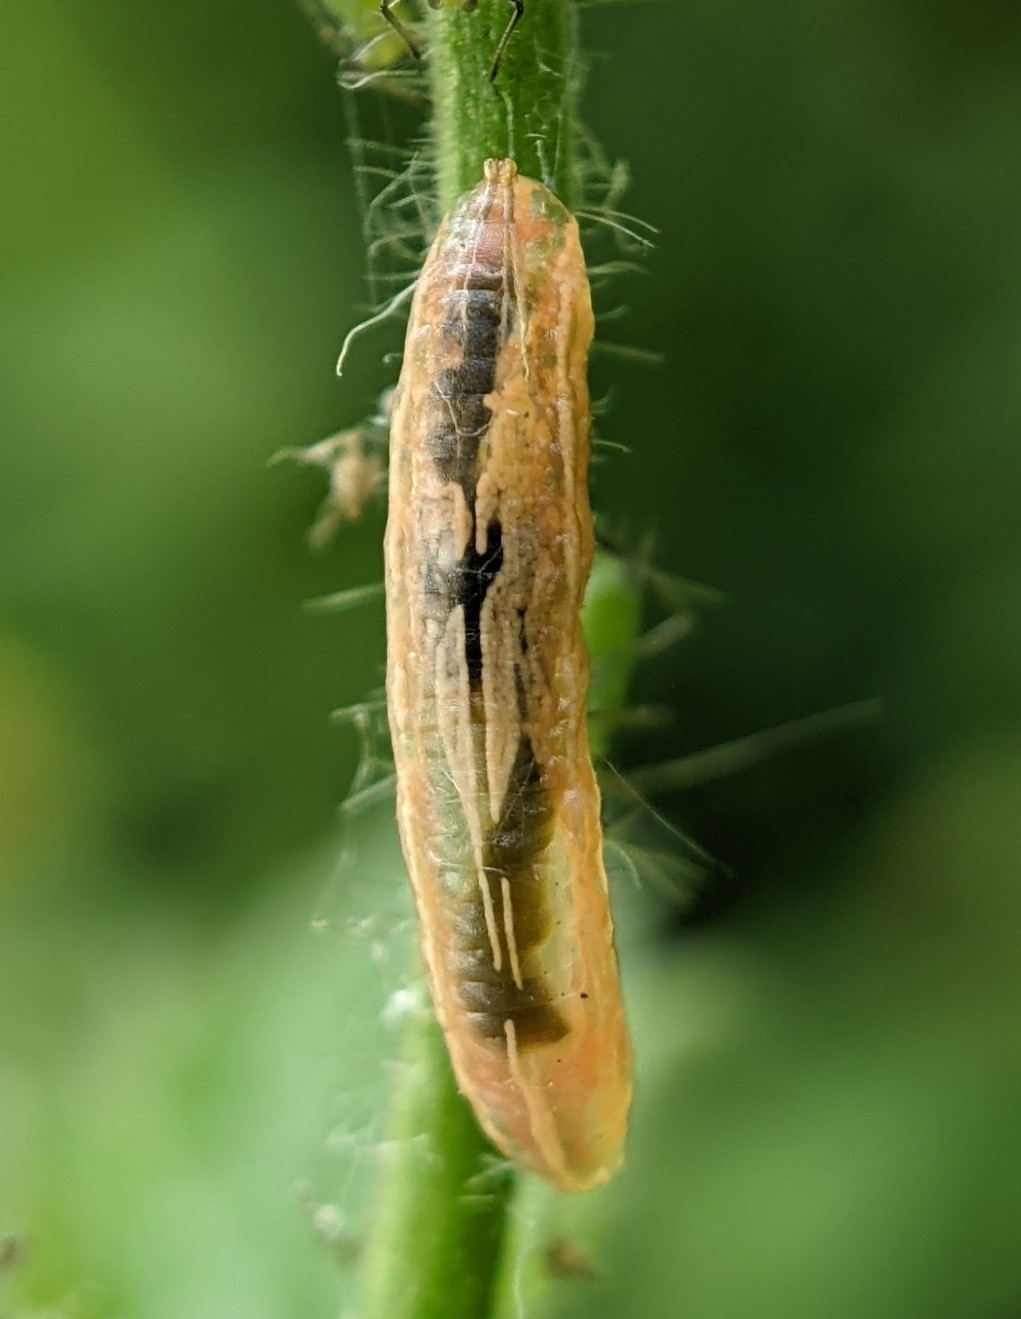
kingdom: Animalia
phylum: Arthropoda
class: Insecta
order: Diptera
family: Syrphidae
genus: Baccha
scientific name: Baccha elongata
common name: Common dainty
